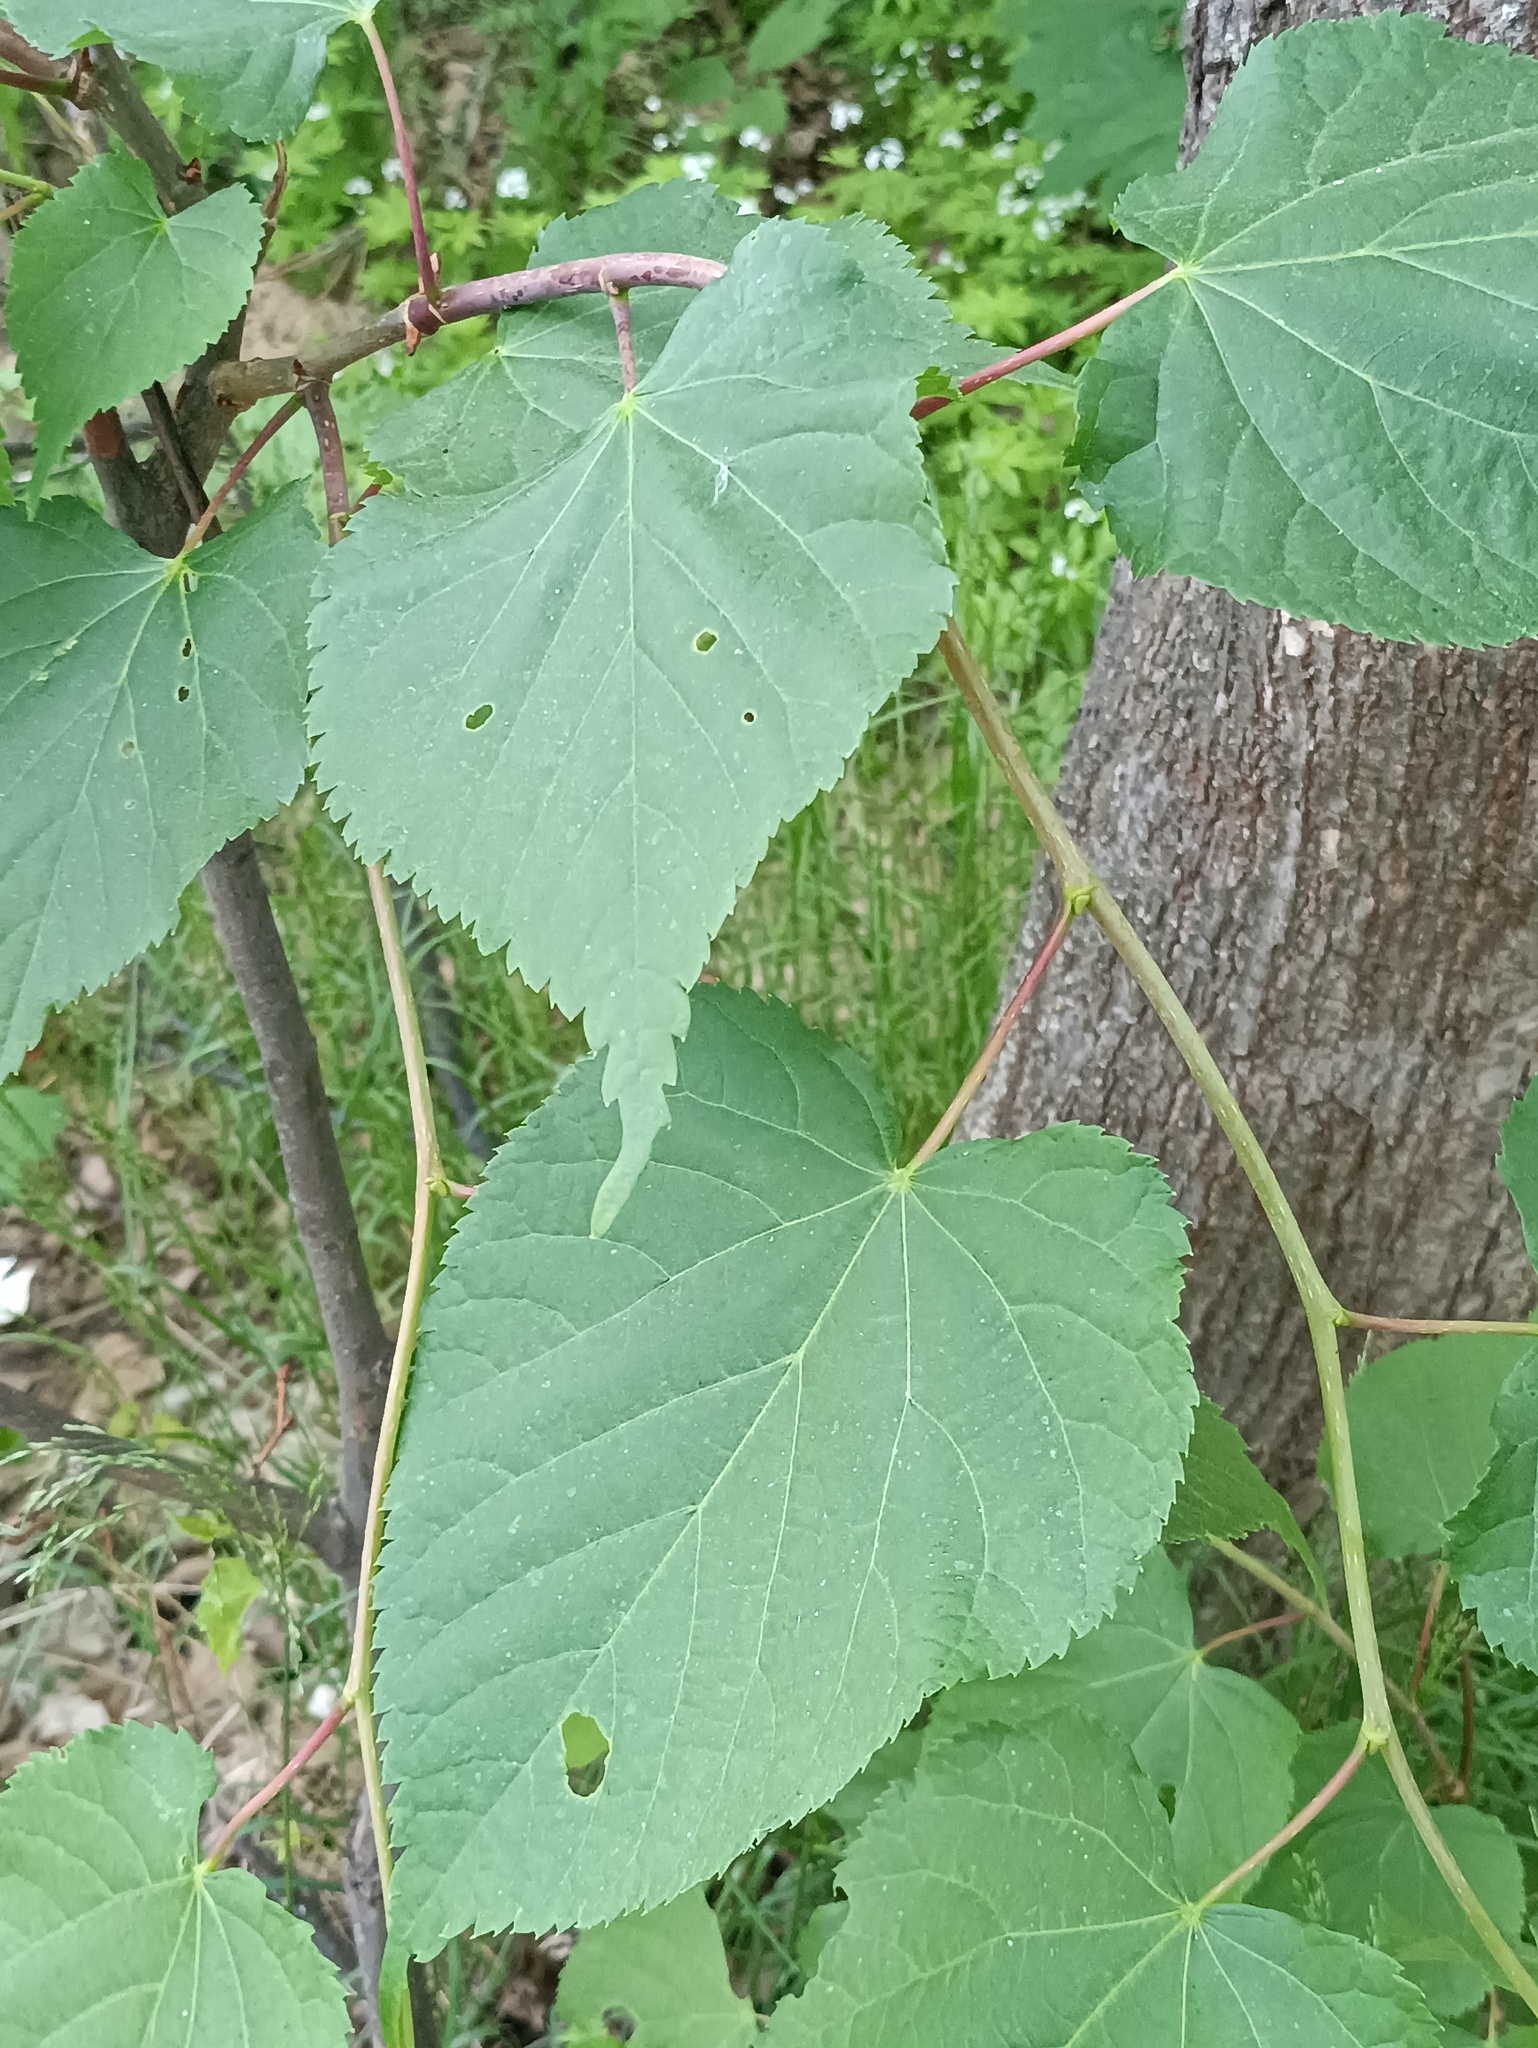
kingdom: Plantae
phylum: Tracheophyta
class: Magnoliopsida
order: Malvales
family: Malvaceae
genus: Tilia
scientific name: Tilia cordata
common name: Small-leaved lime
